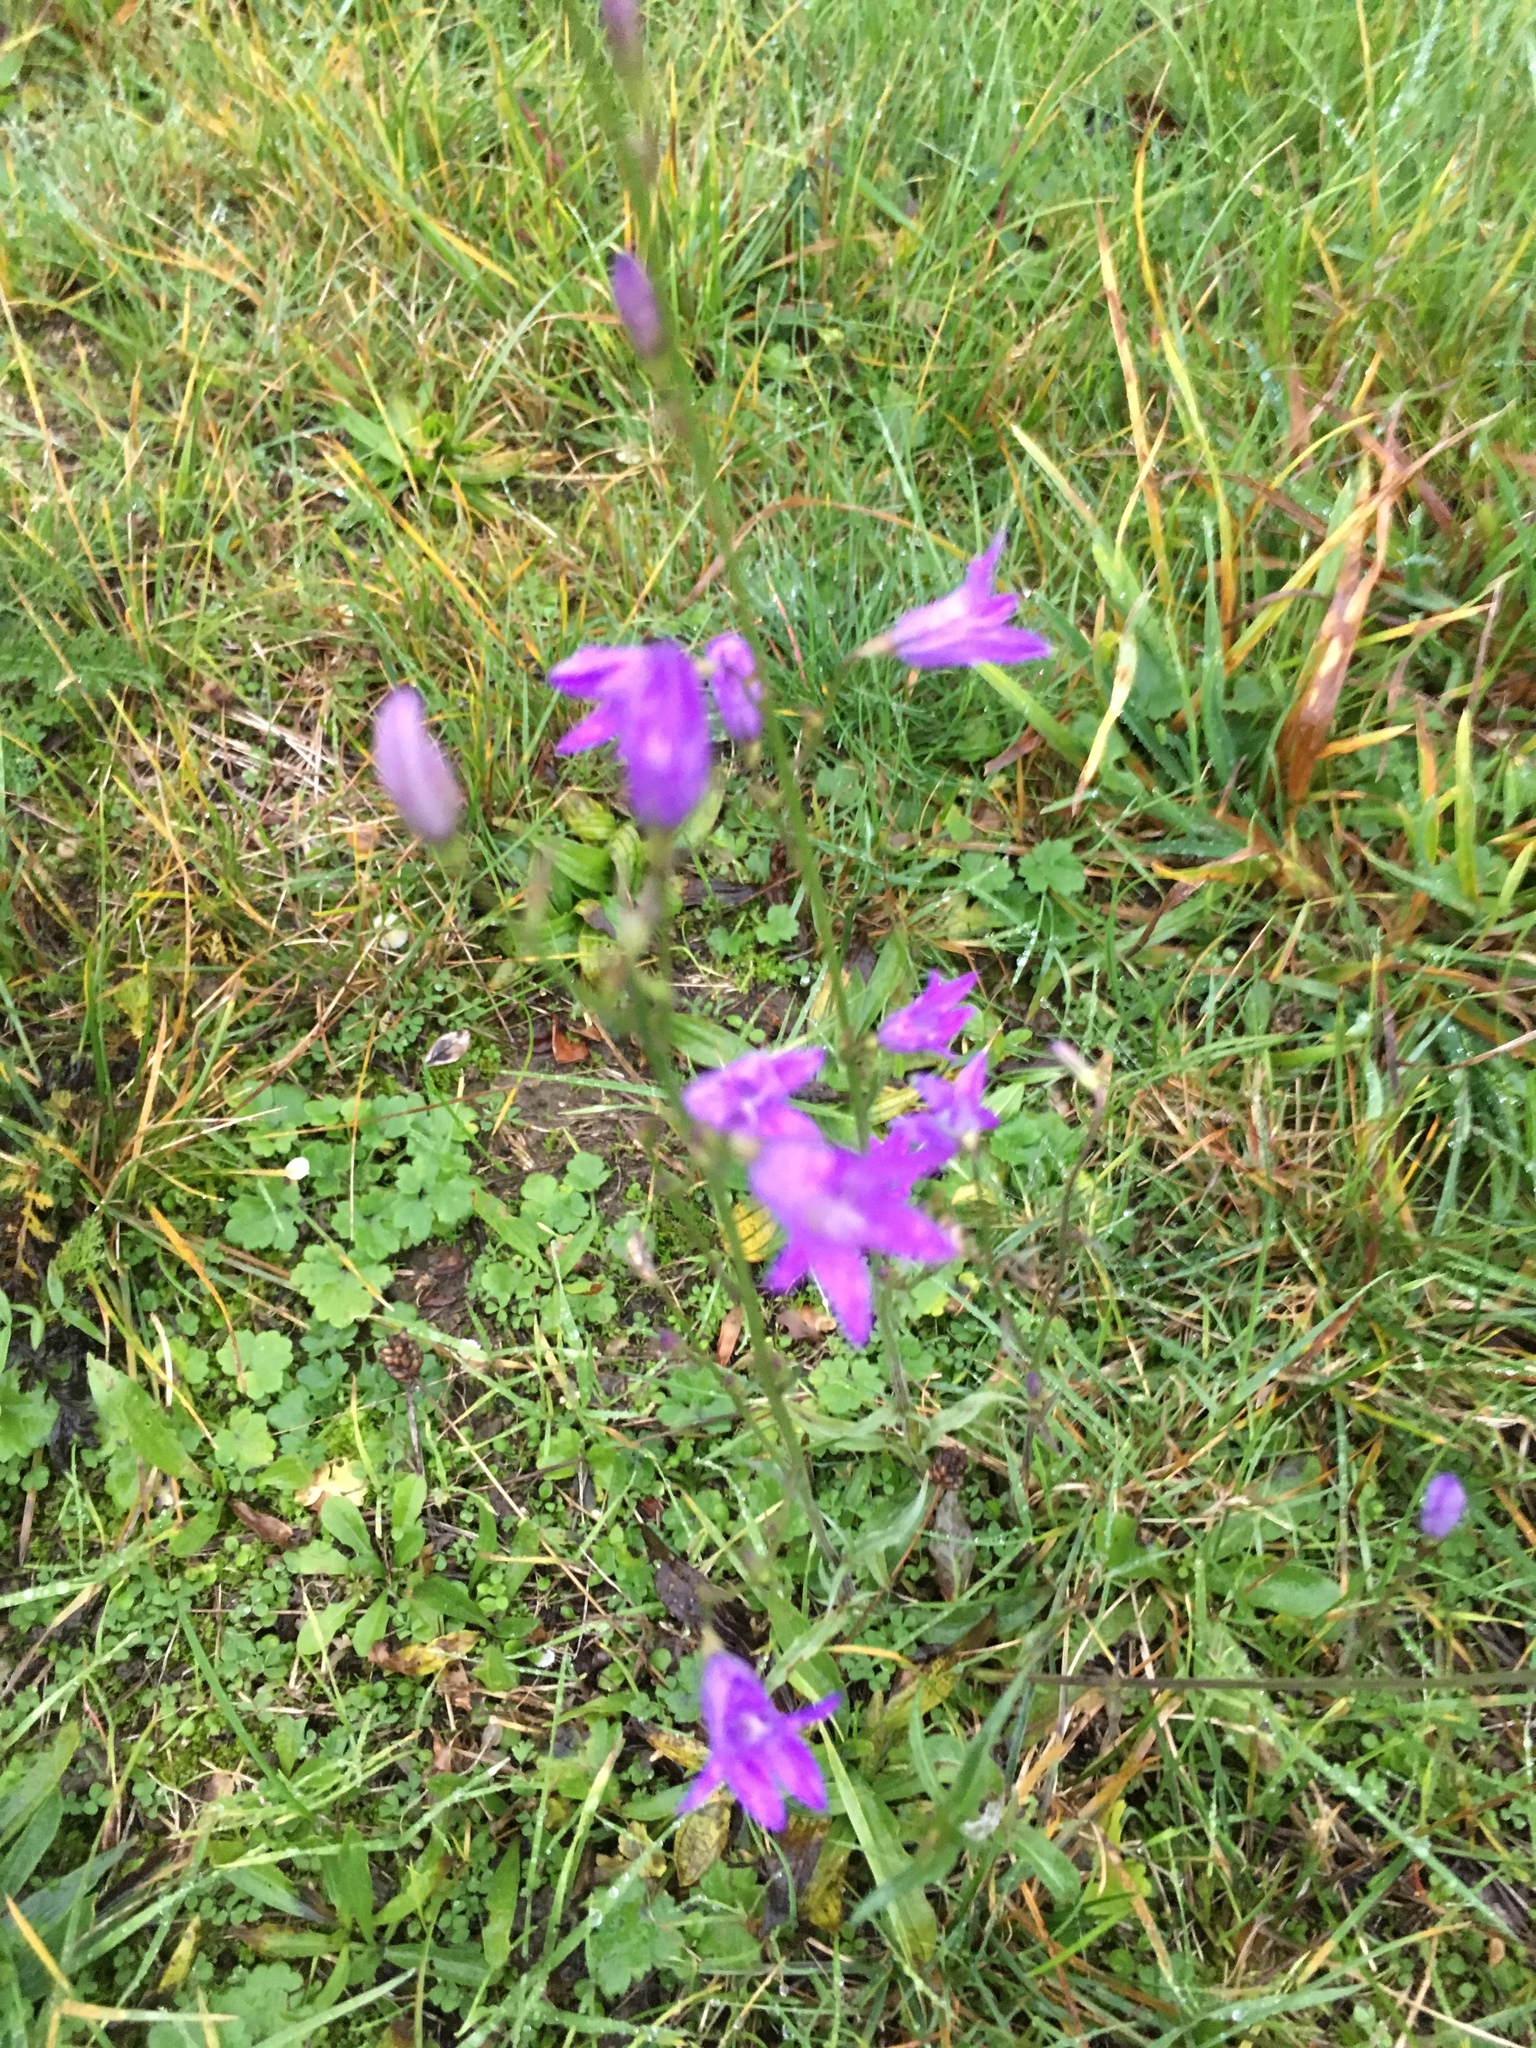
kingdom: Plantae
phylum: Tracheophyta
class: Magnoliopsida
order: Asterales
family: Campanulaceae
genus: Campanula
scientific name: Campanula rapunculus
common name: Rampion bellflower
